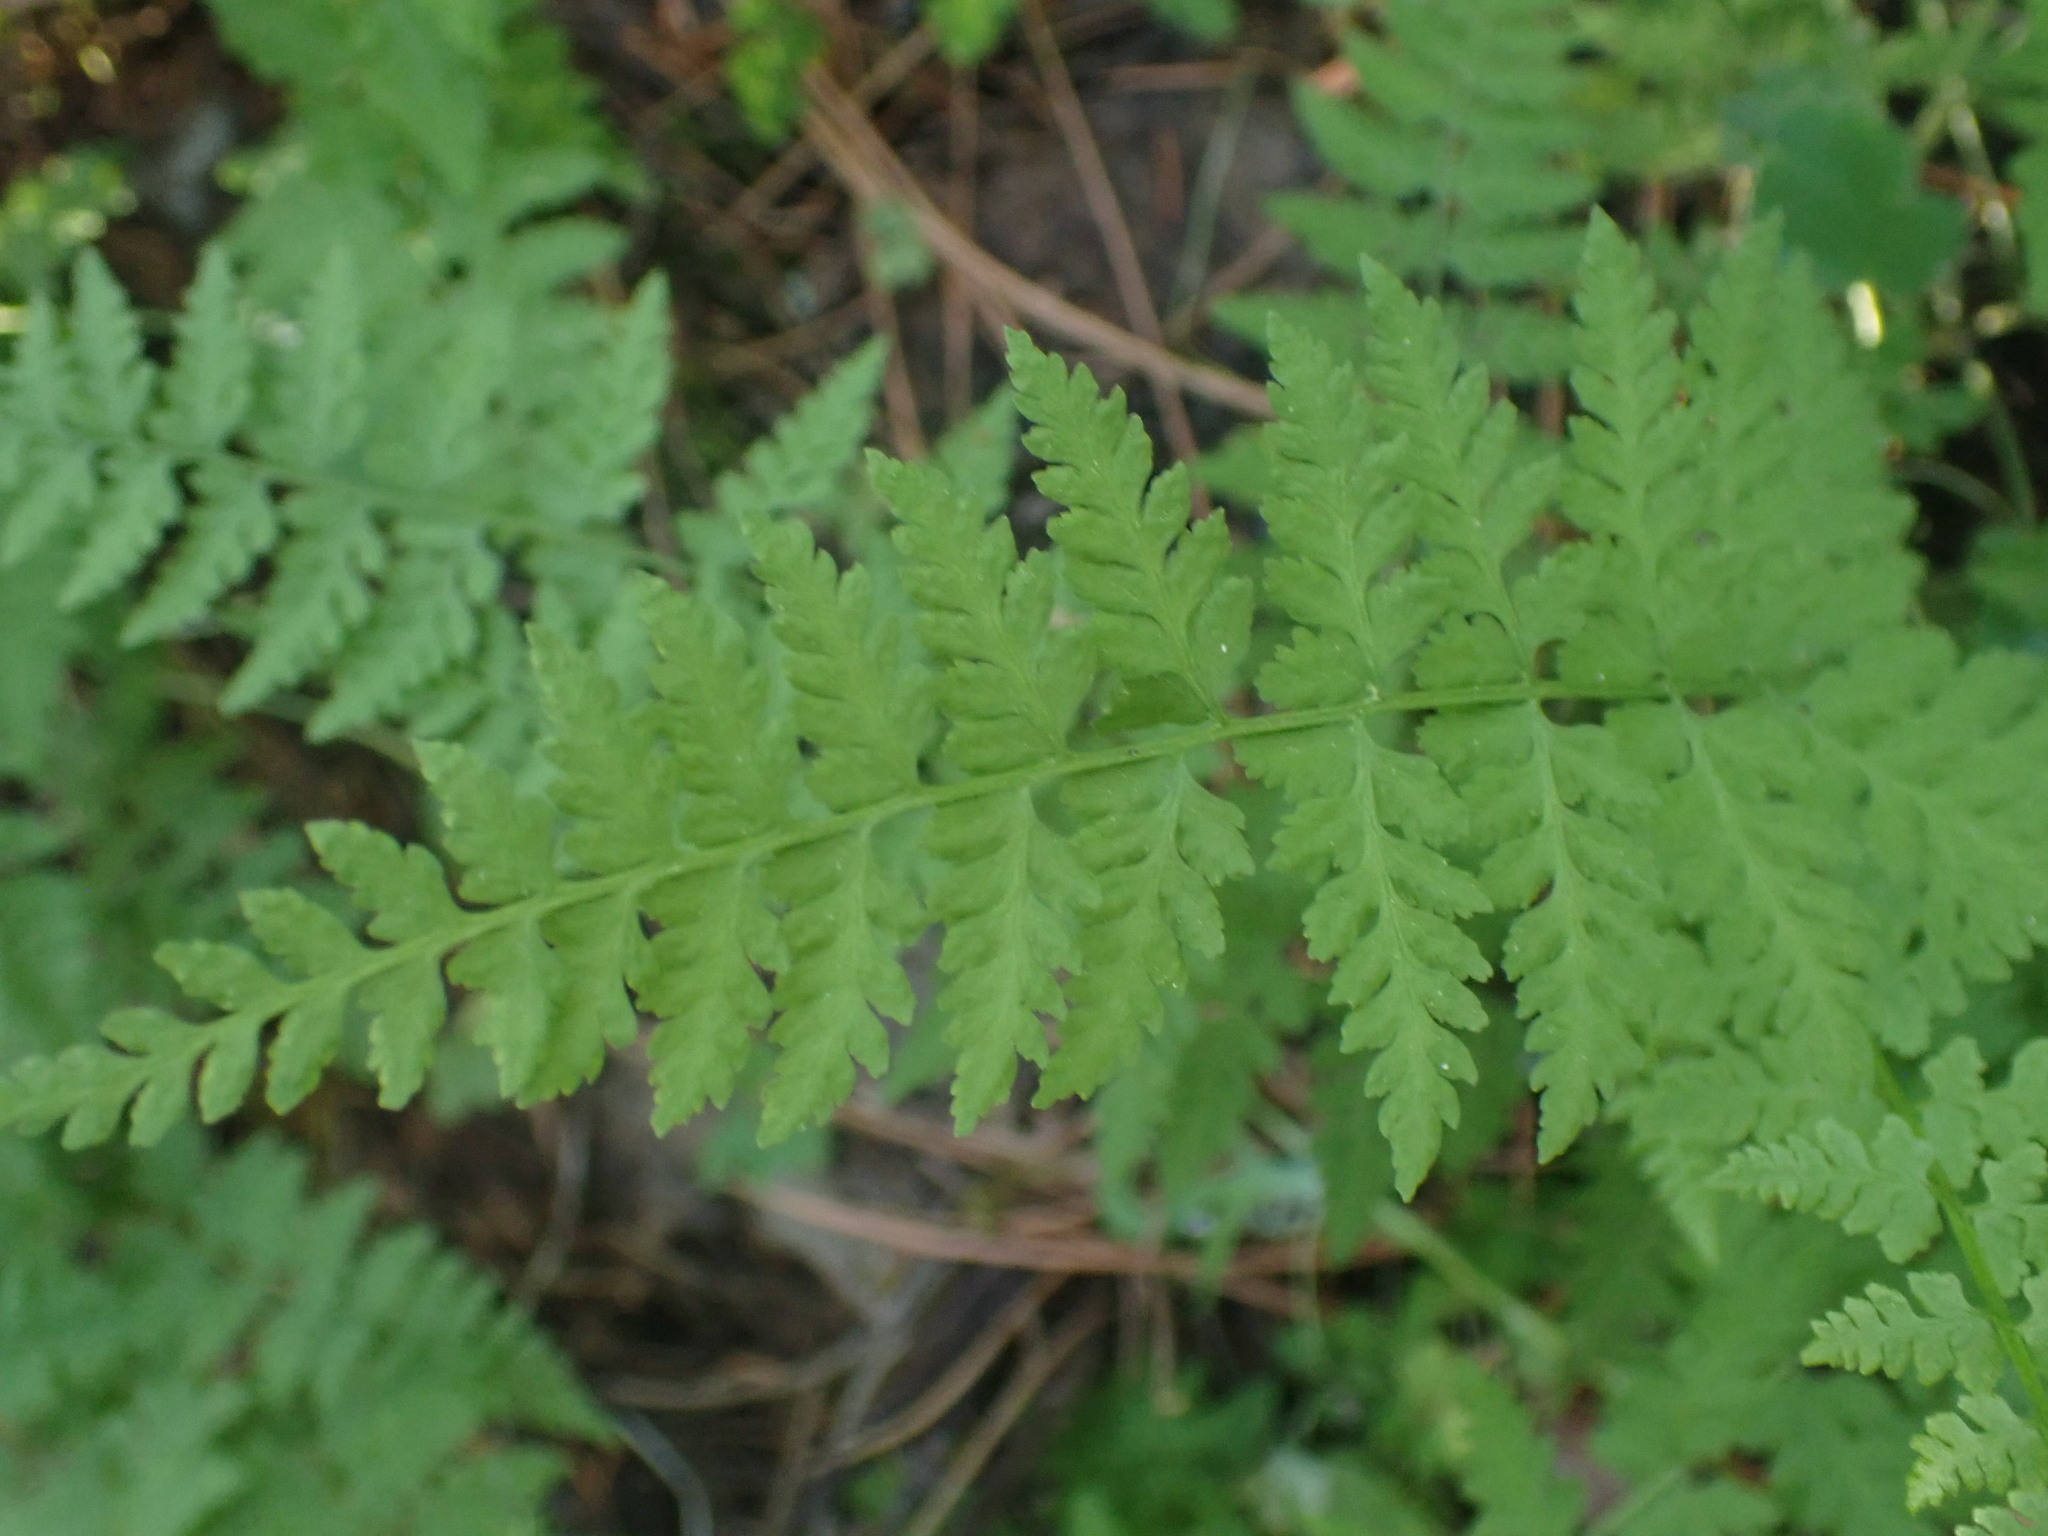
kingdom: Plantae
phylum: Tracheophyta
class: Polypodiopsida
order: Polypodiales
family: Cystopteridaceae
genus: Cystopteris
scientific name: Cystopteris fragilis
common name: Brittle bladder fern
